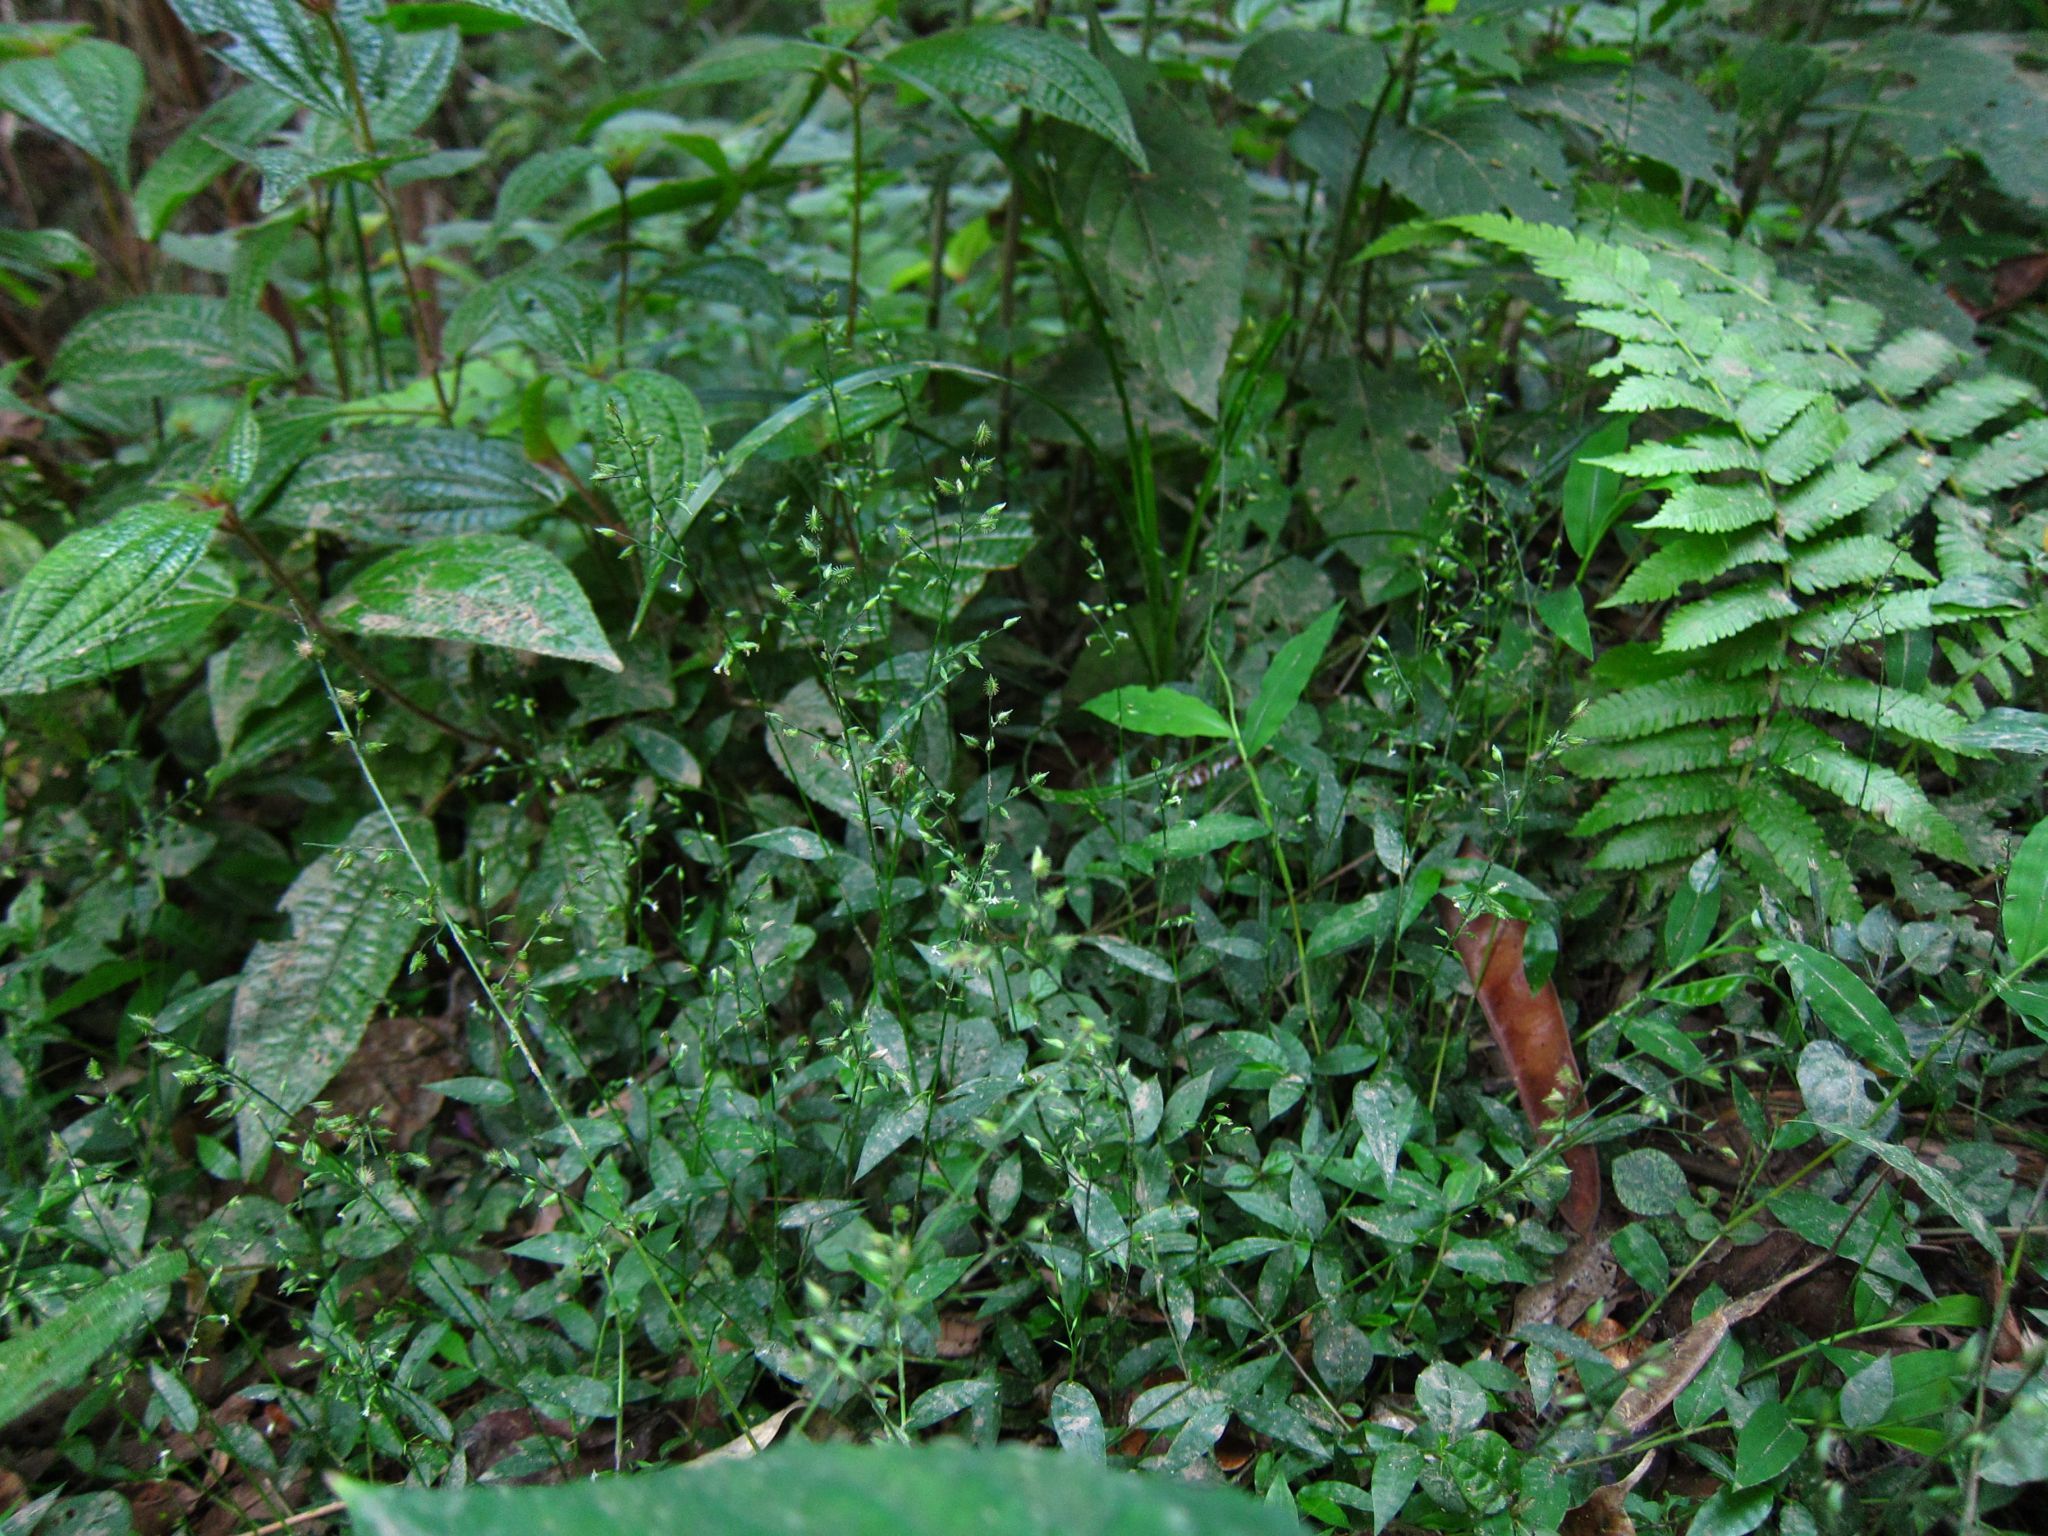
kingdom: Plantae
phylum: Tracheophyta
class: Liliopsida
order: Poales
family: Poaceae
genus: Pseudechinolaena
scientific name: Pseudechinolaena polystachya
